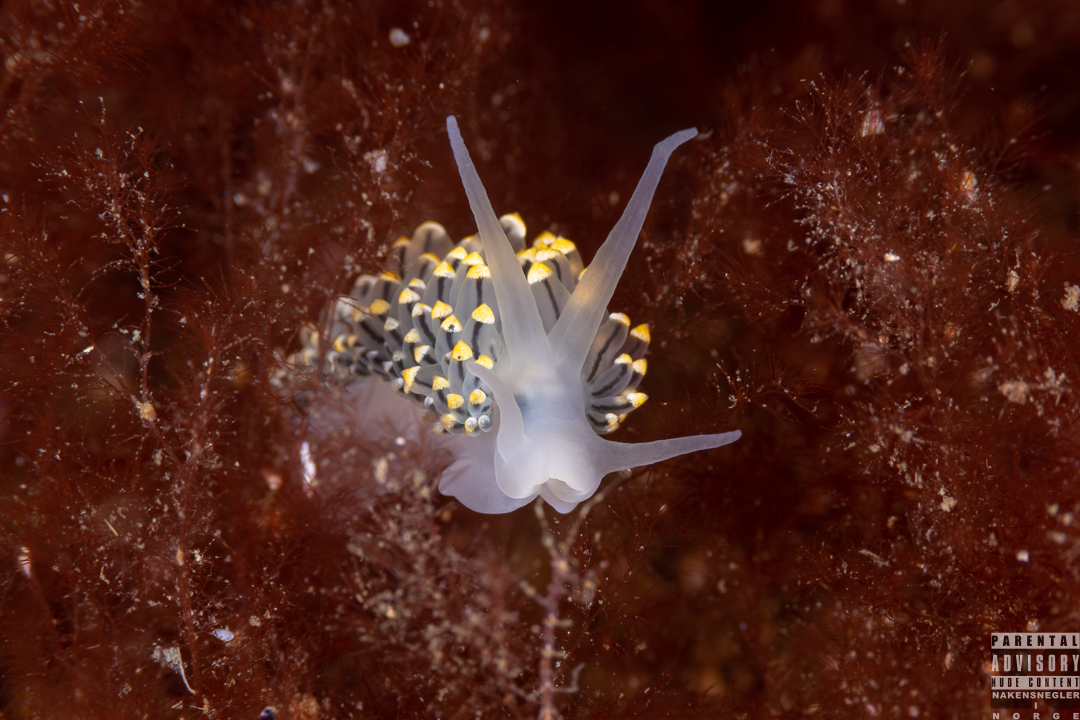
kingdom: Animalia
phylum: Mollusca
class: Gastropoda
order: Nudibranchia
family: Eubranchidae
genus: Eubranchus
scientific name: Eubranchus tricolor
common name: Painted balloon aeolis
